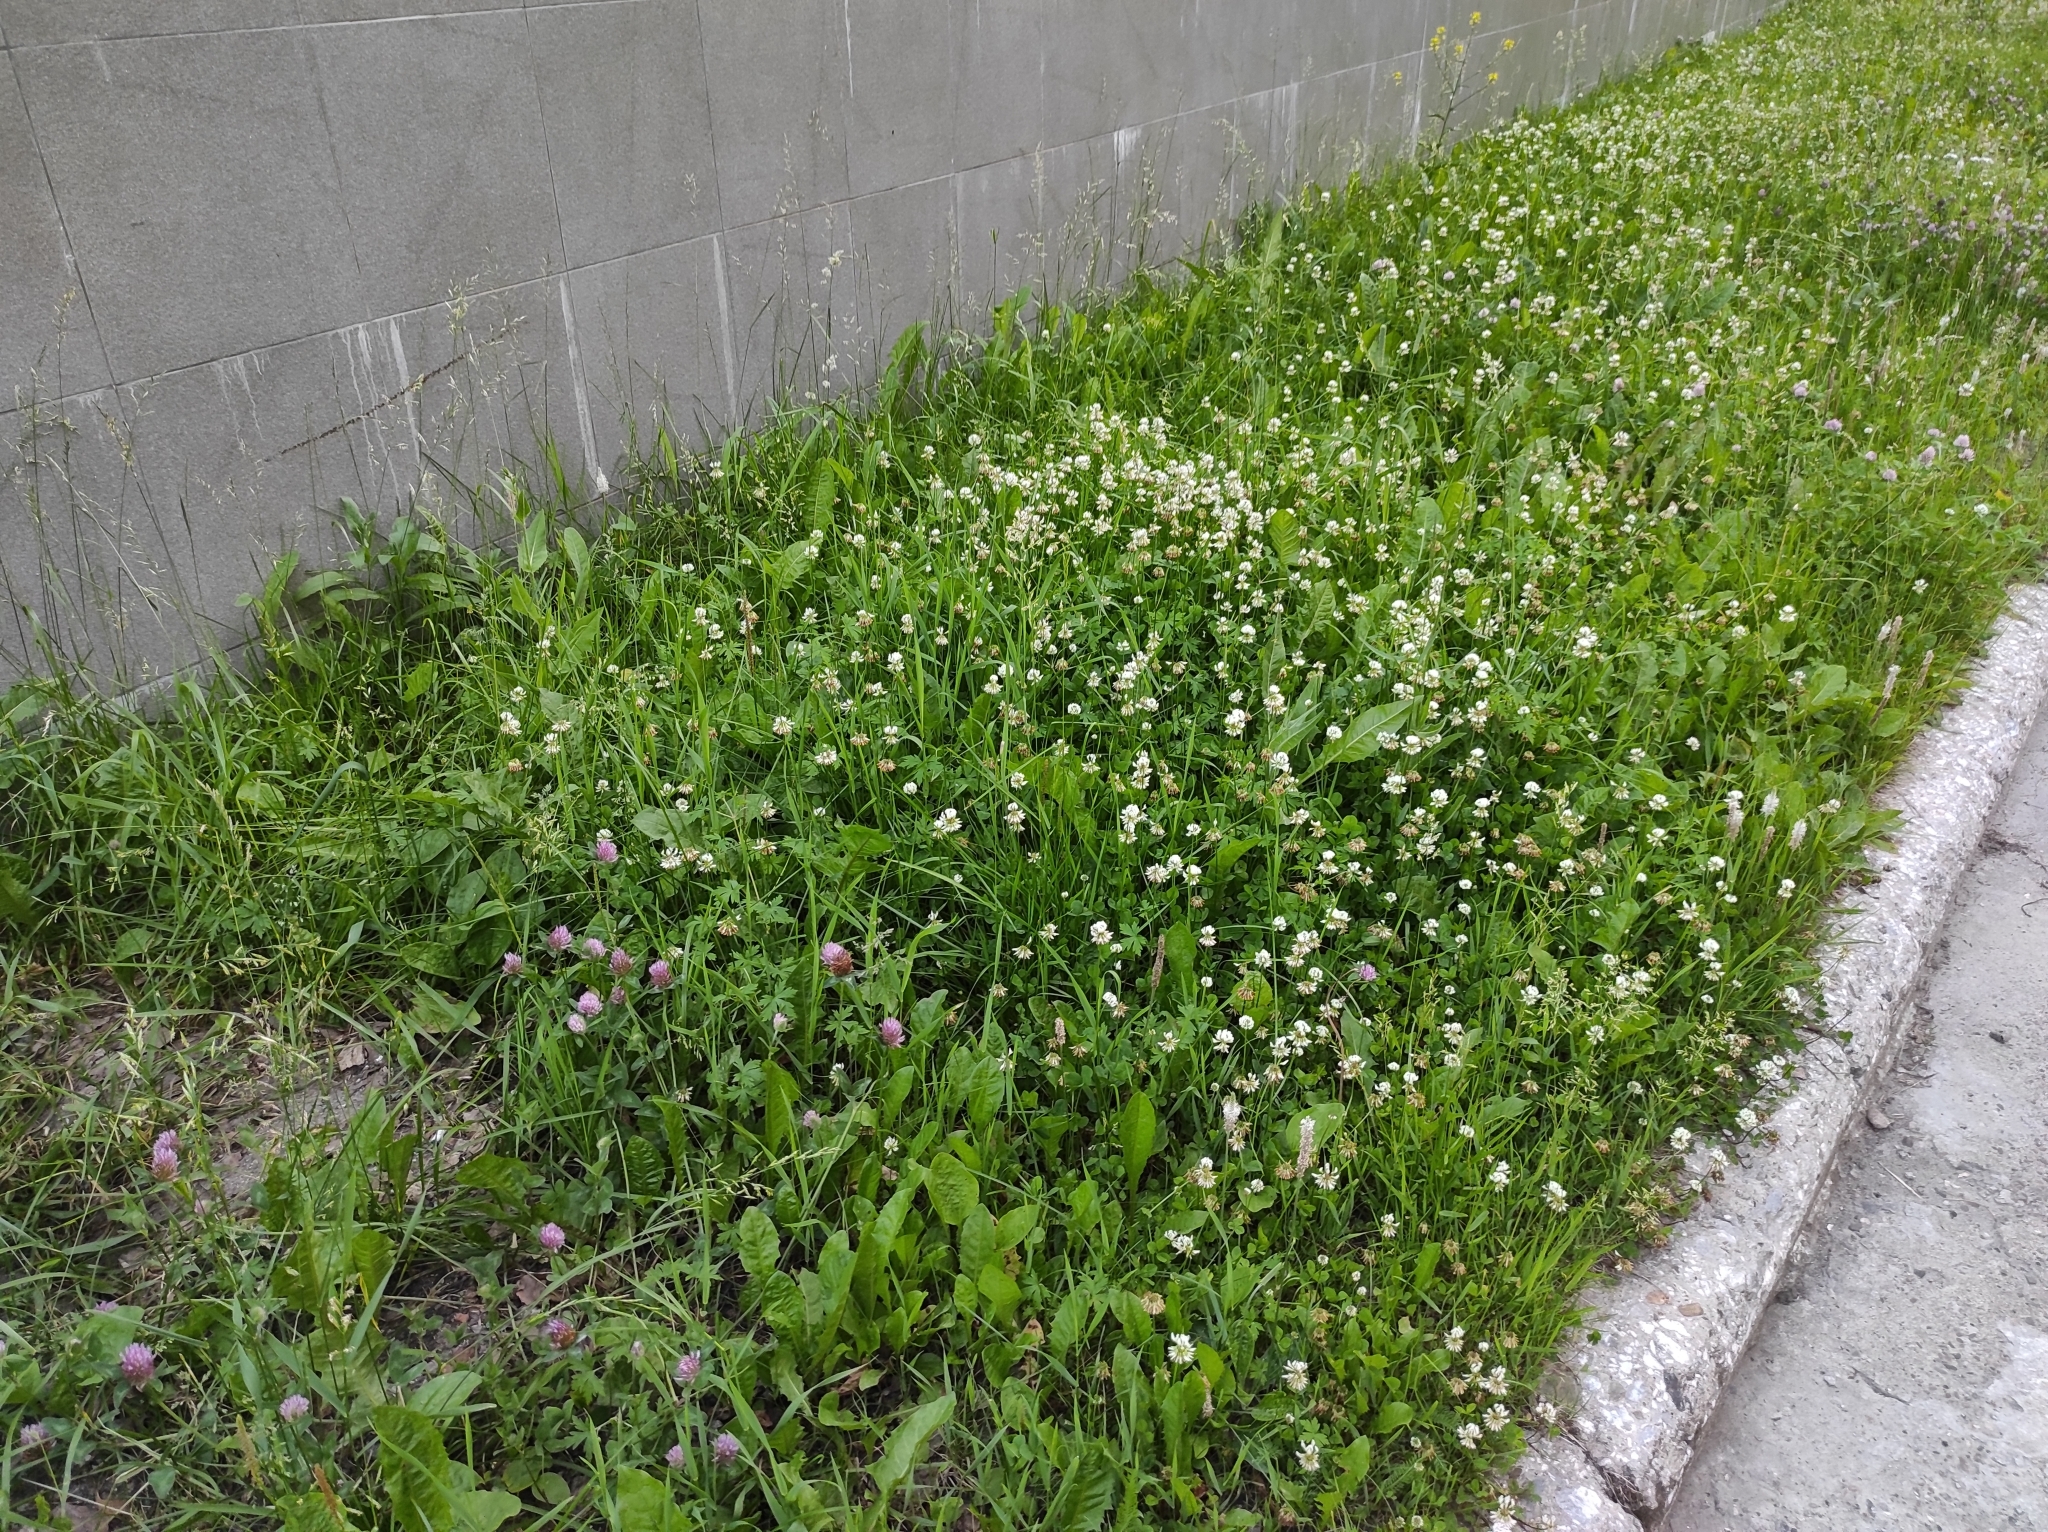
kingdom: Plantae
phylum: Tracheophyta
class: Magnoliopsida
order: Fabales
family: Fabaceae
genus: Trifolium
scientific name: Trifolium repens
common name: White clover
